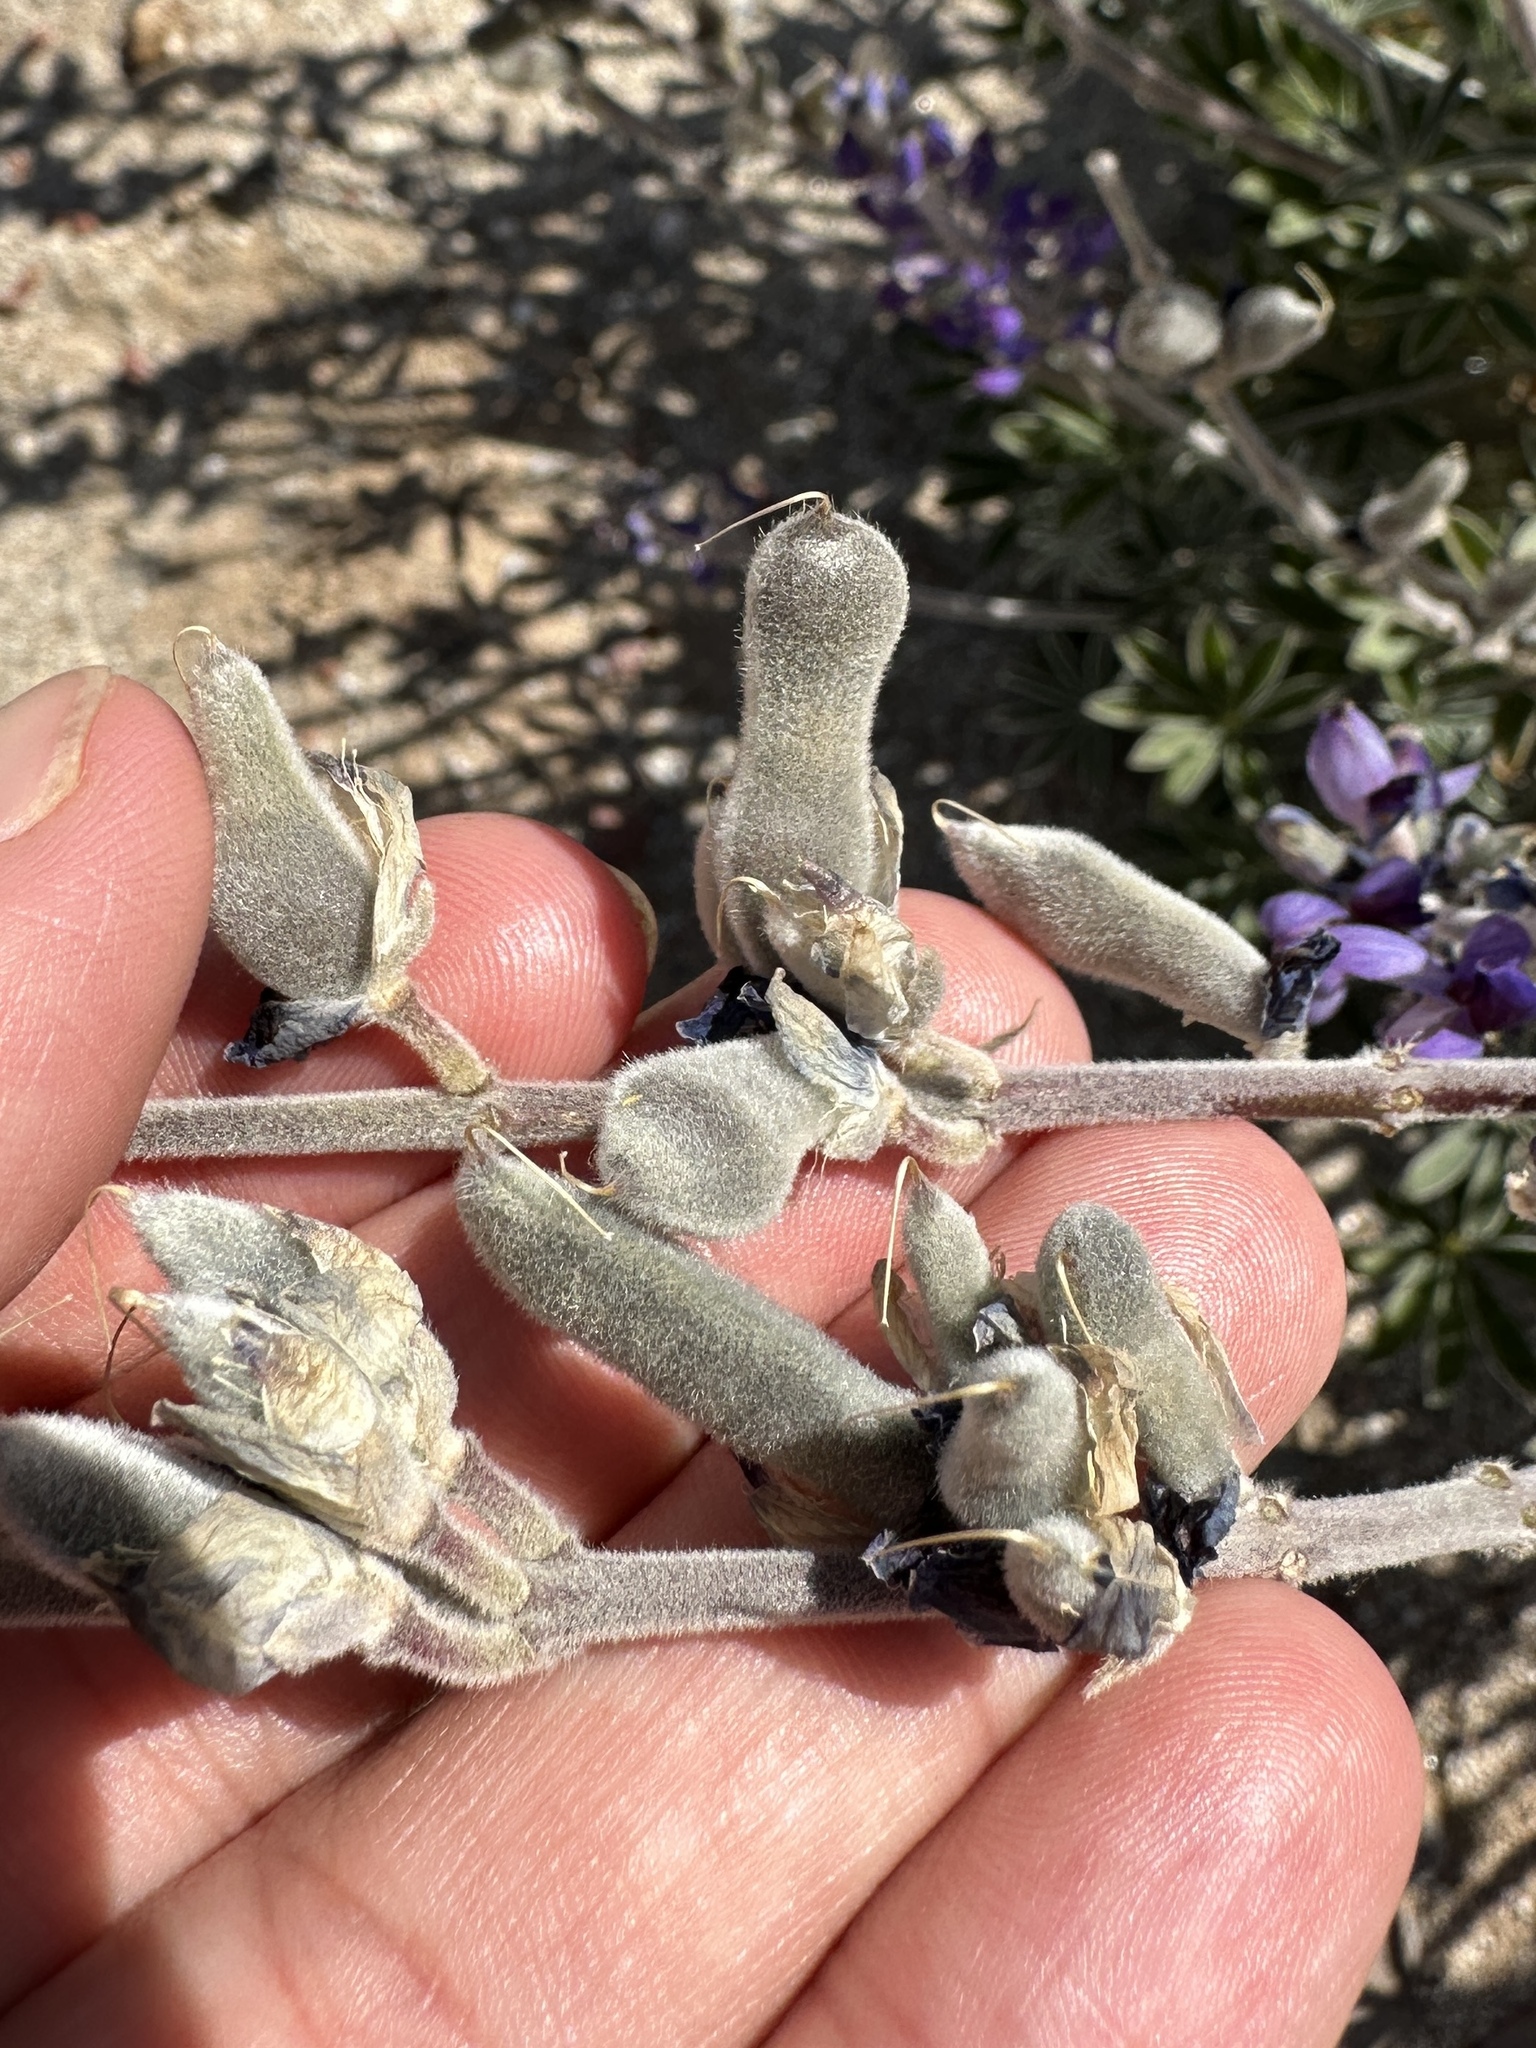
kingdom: Plantae
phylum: Tracheophyta
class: Magnoliopsida
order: Fabales
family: Fabaceae
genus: Lupinus
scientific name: Lupinus excubitus
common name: Grape soda lupine
